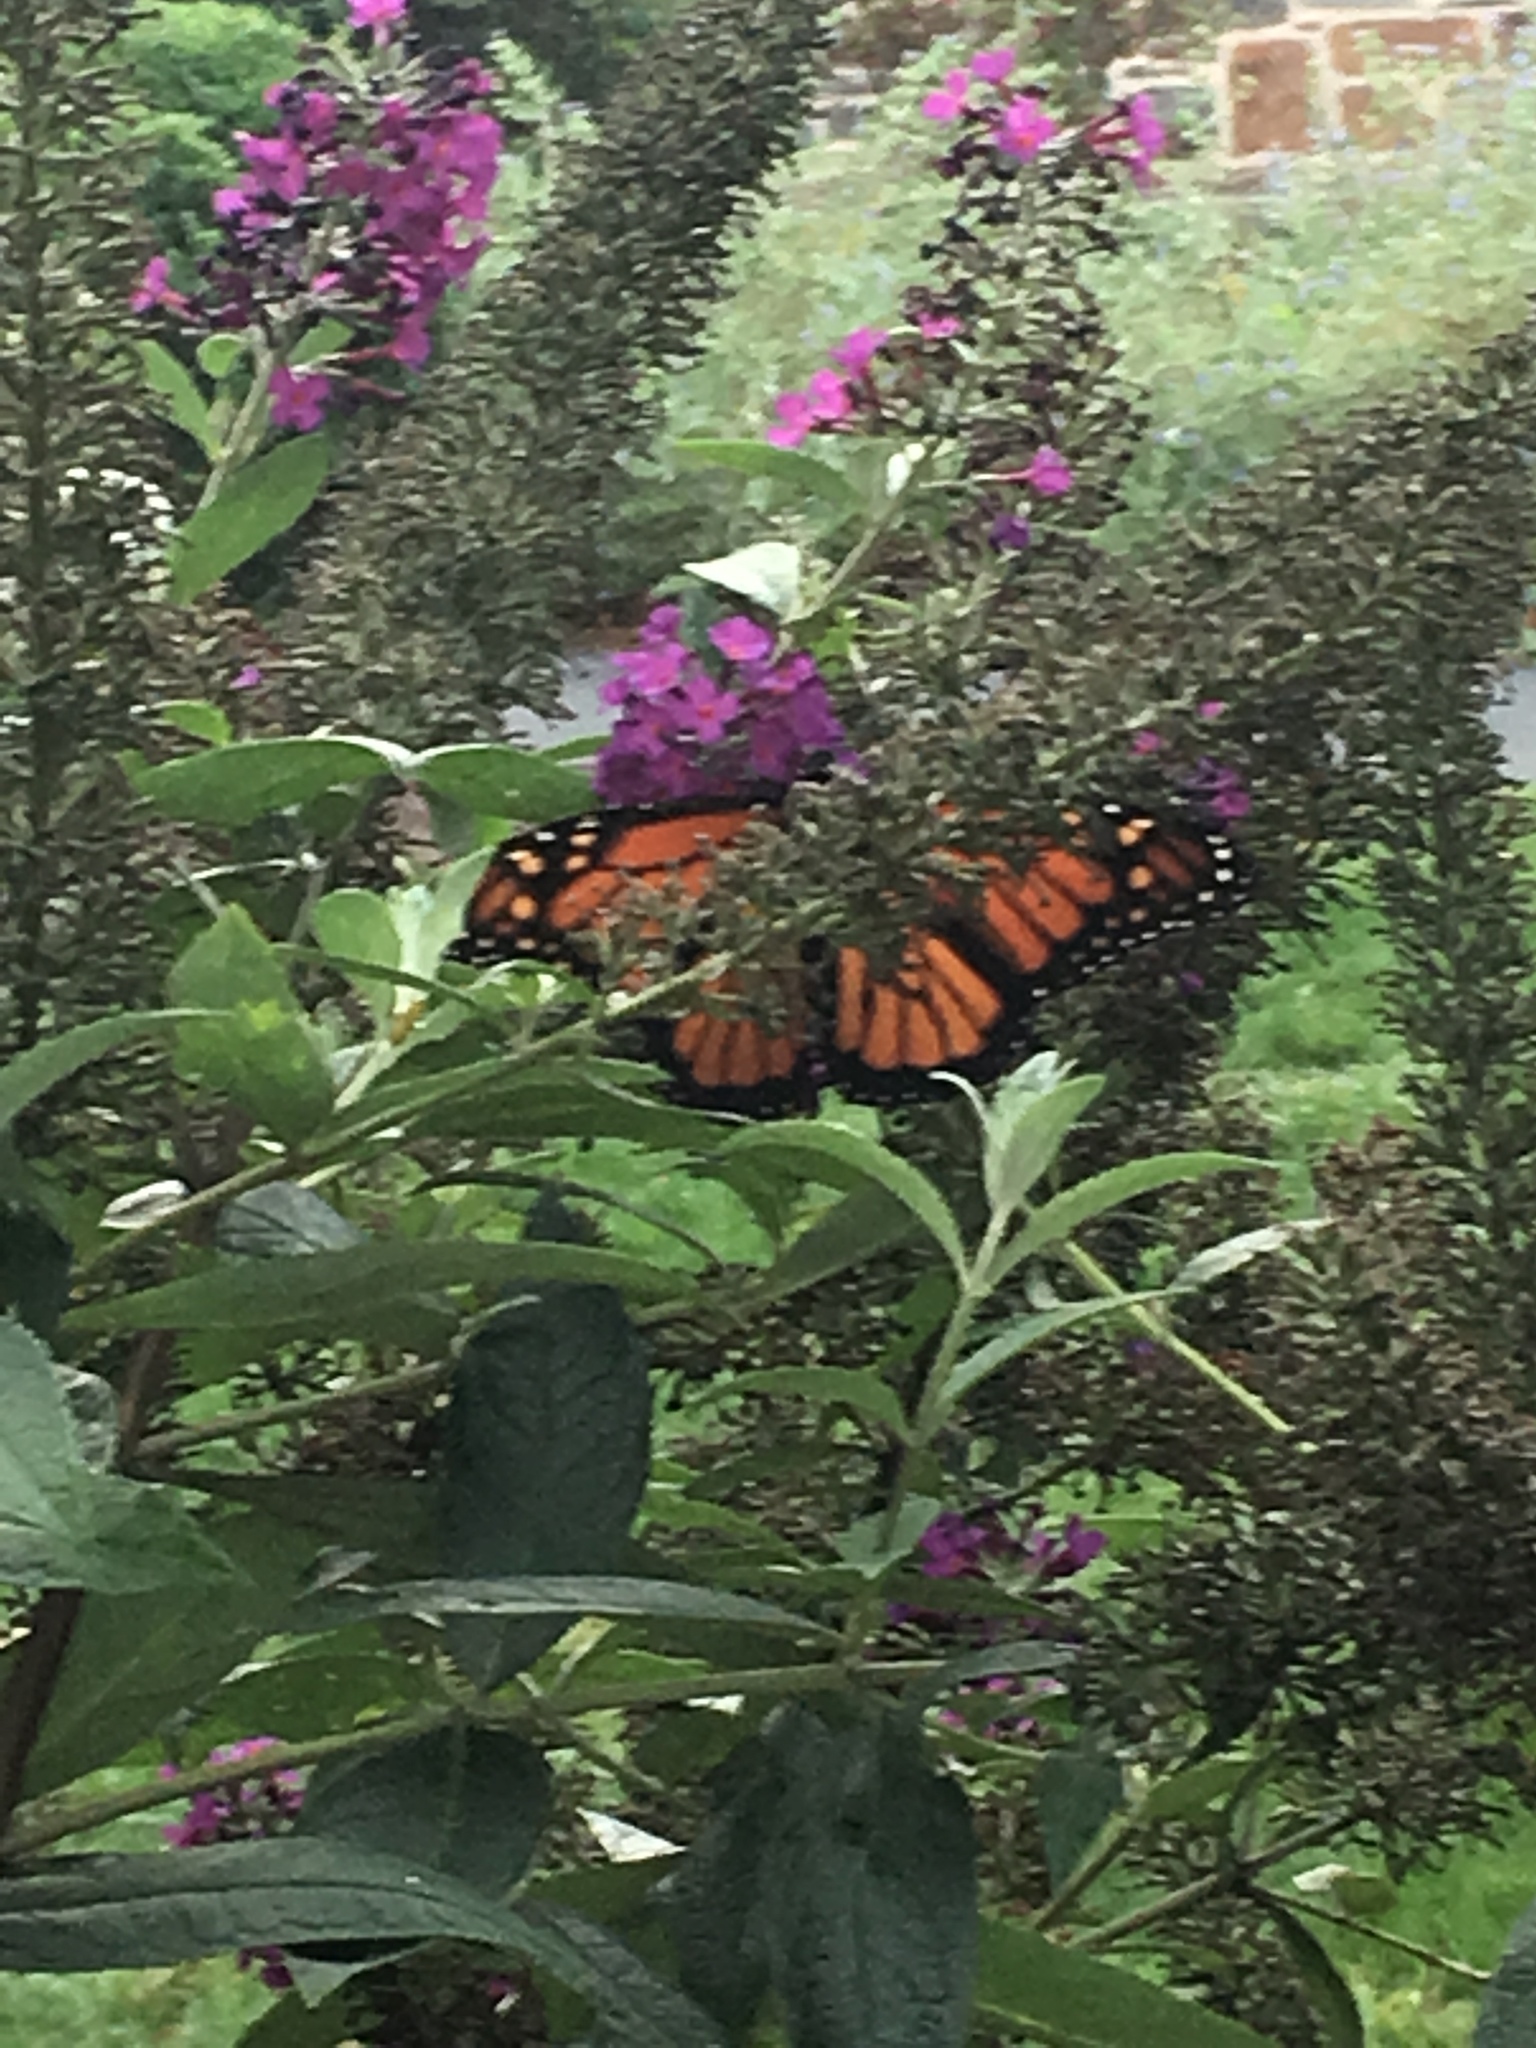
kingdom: Animalia
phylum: Arthropoda
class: Insecta
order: Lepidoptera
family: Nymphalidae
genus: Danaus
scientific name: Danaus plexippus
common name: Monarch
